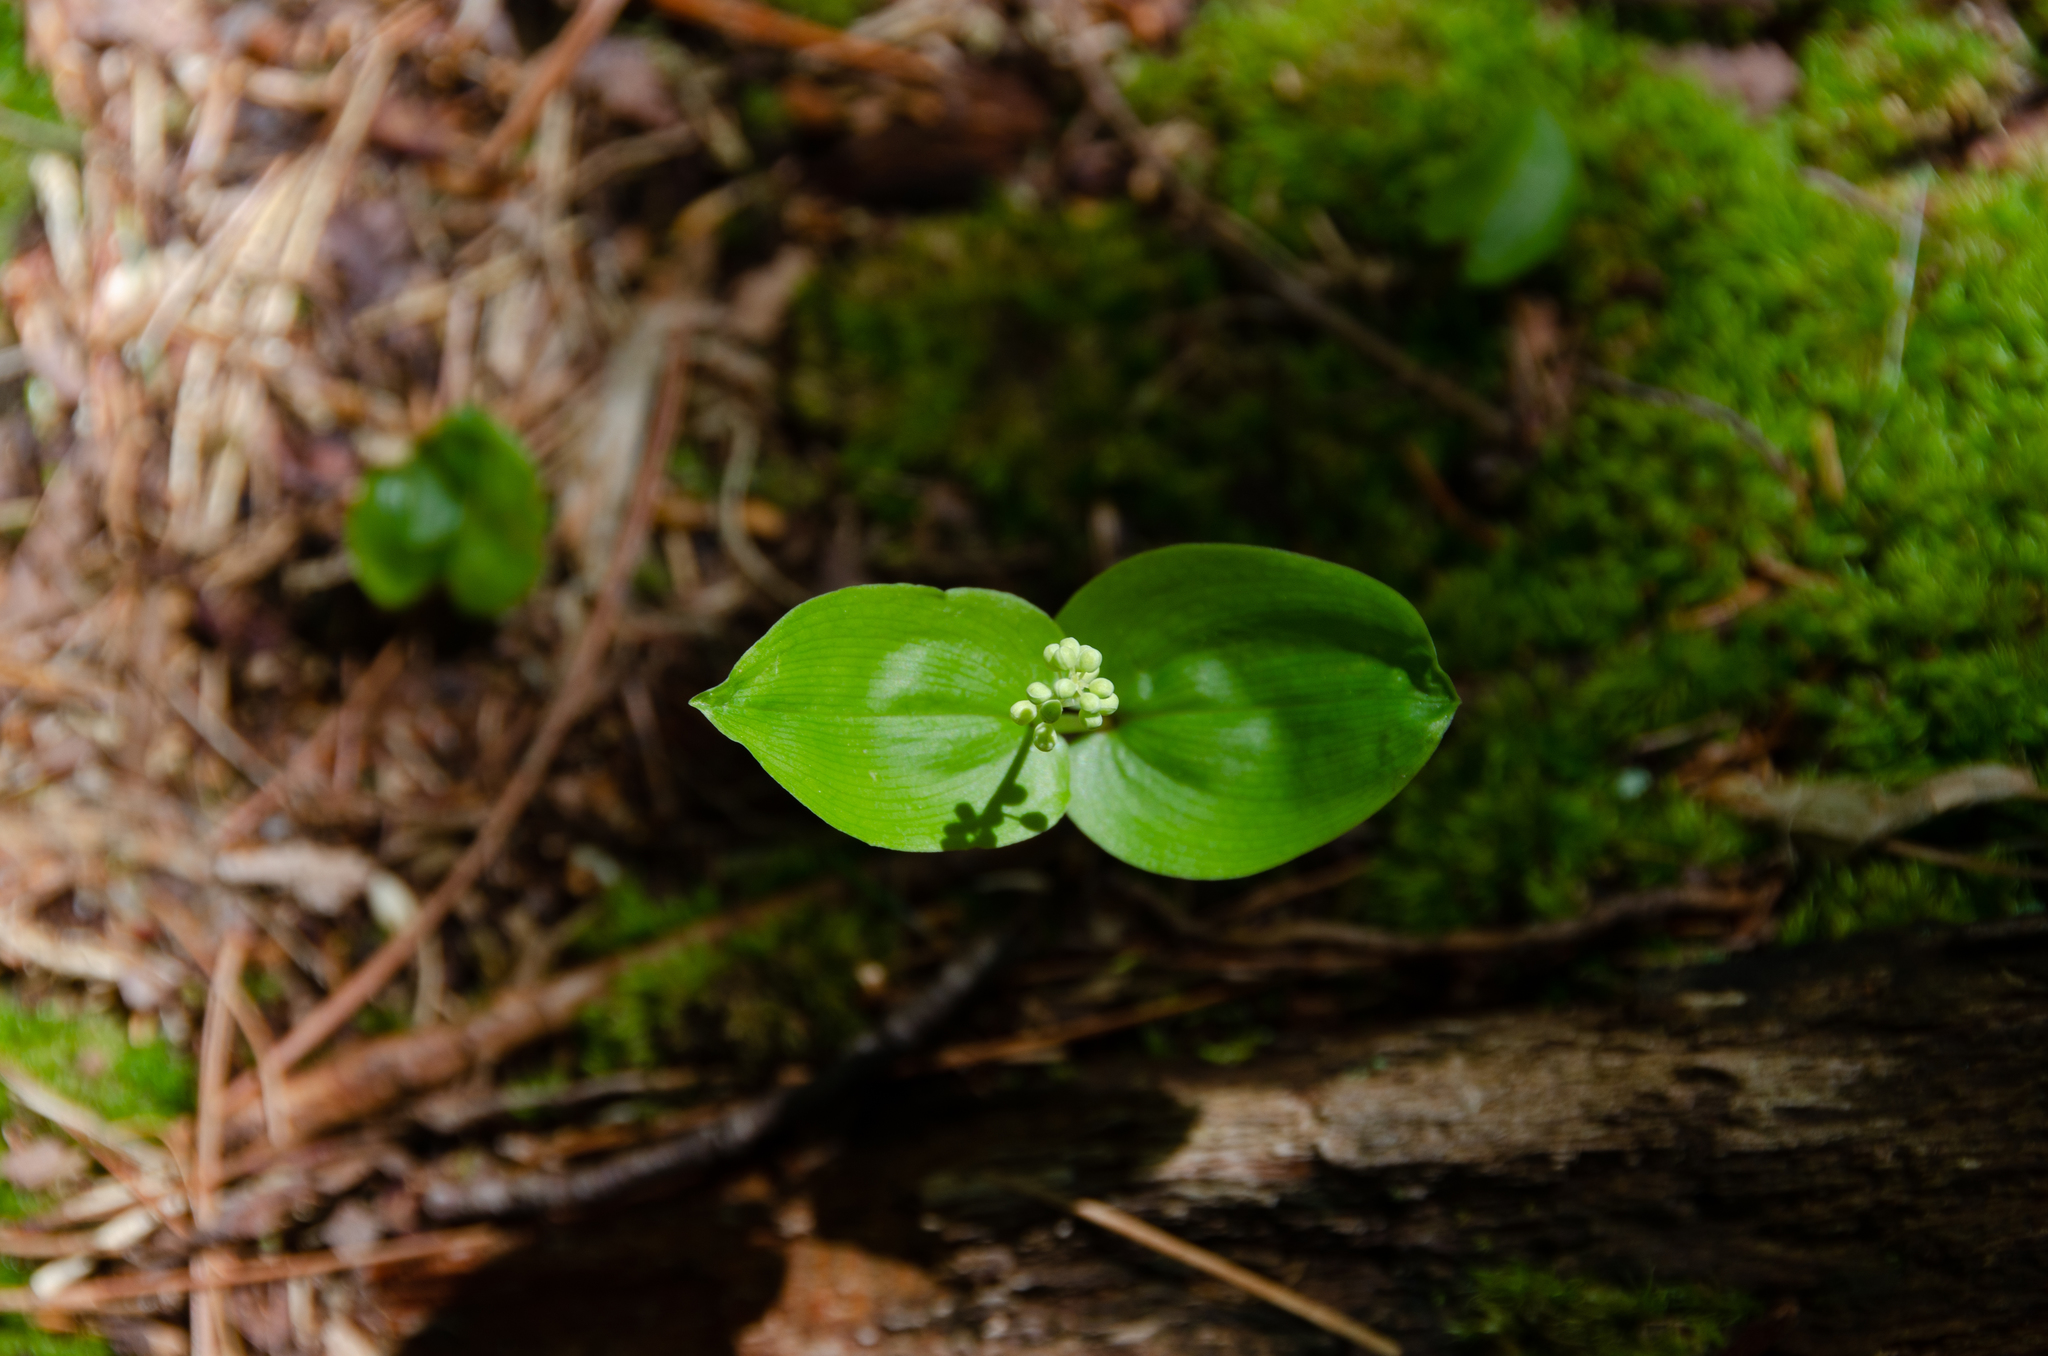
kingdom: Plantae
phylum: Tracheophyta
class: Liliopsida
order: Asparagales
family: Asparagaceae
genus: Maianthemum
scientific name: Maianthemum canadense
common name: False lily-of-the-valley
